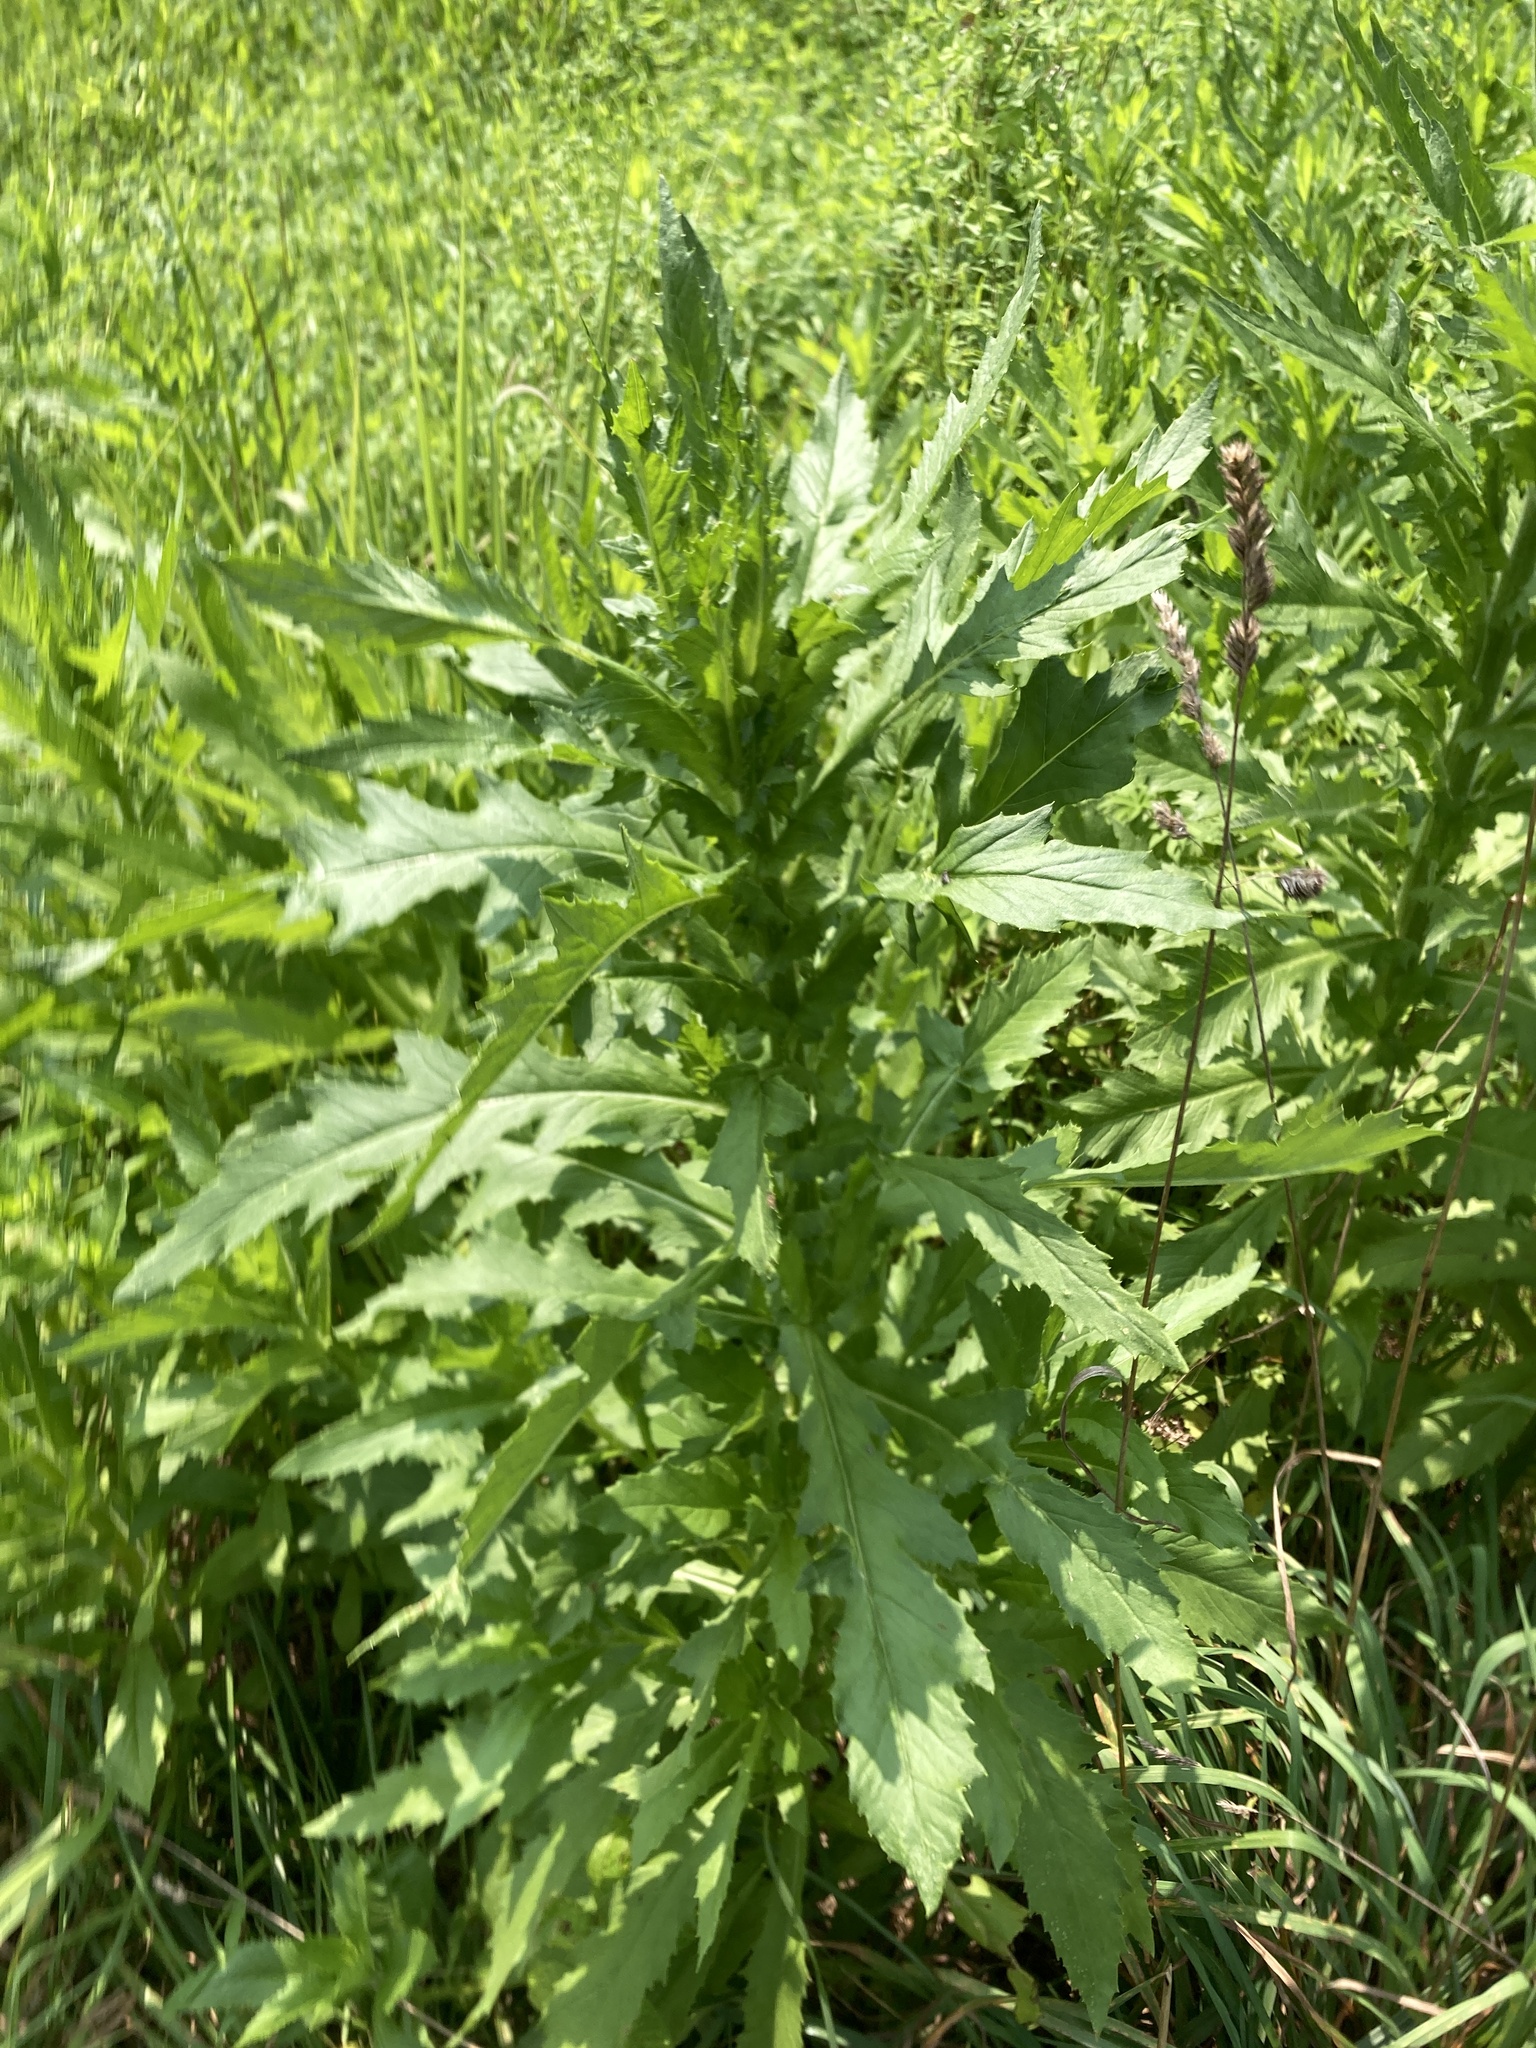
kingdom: Plantae
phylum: Tracheophyta
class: Magnoliopsida
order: Asterales
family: Asteraceae
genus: Erechtites
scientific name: Erechtites hieraciifolius
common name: American burnweed
